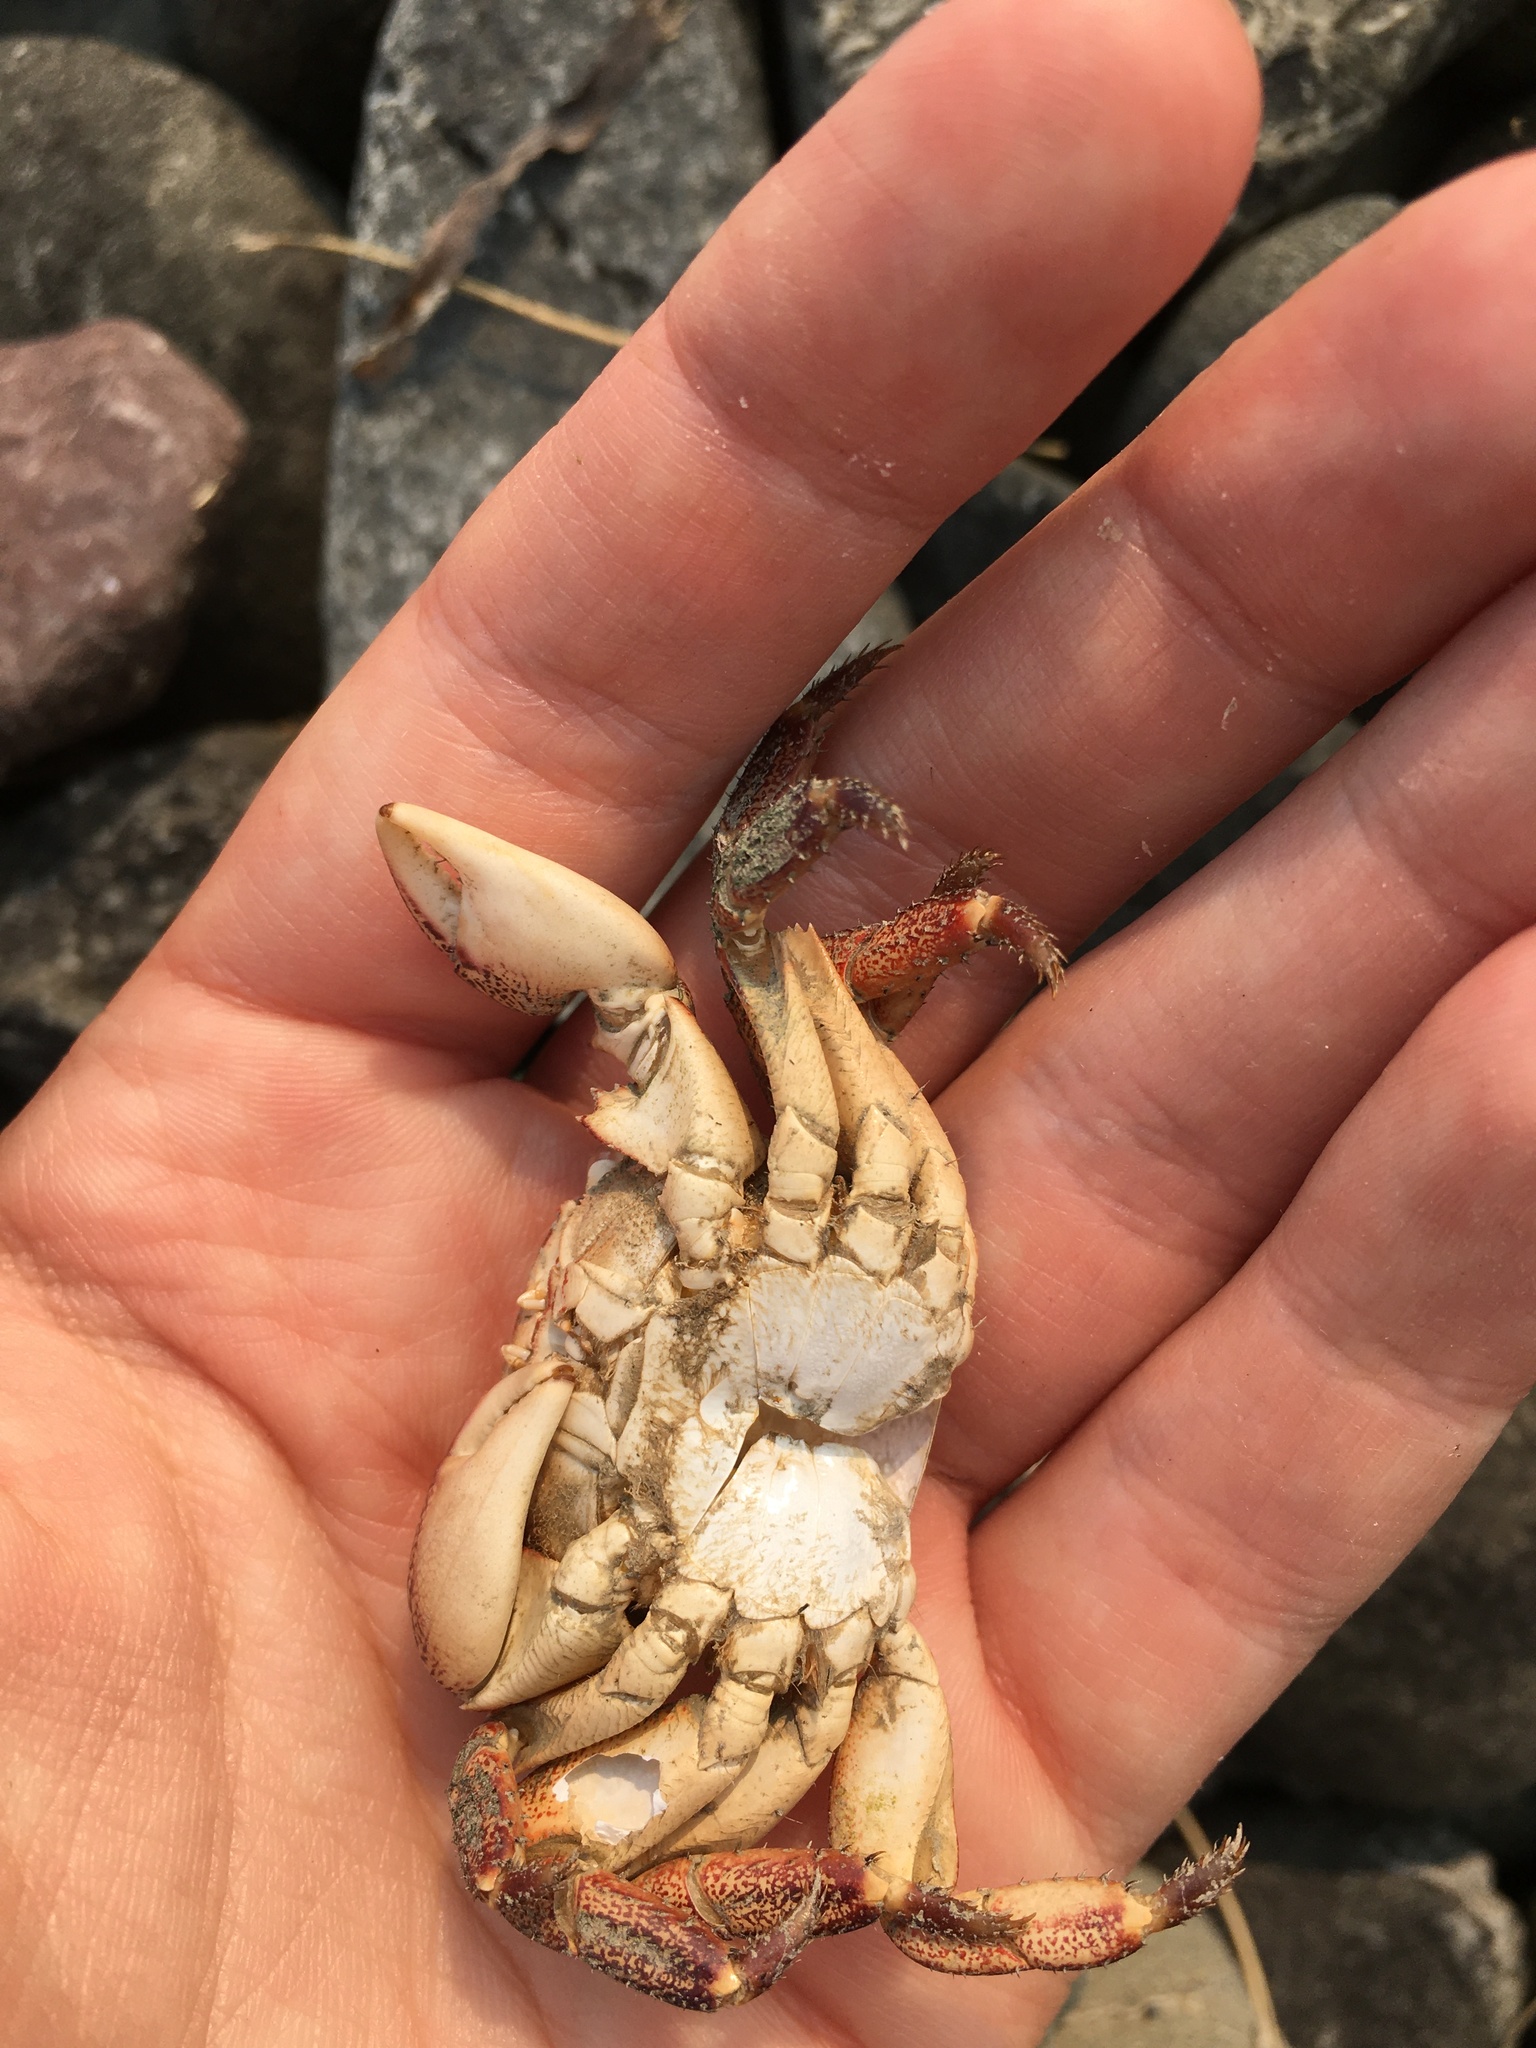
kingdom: Animalia
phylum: Arthropoda
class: Malacostraca
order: Decapoda
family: Grapsidae
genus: Pachygrapsus
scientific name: Pachygrapsus crassipes
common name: Striped shore crab
